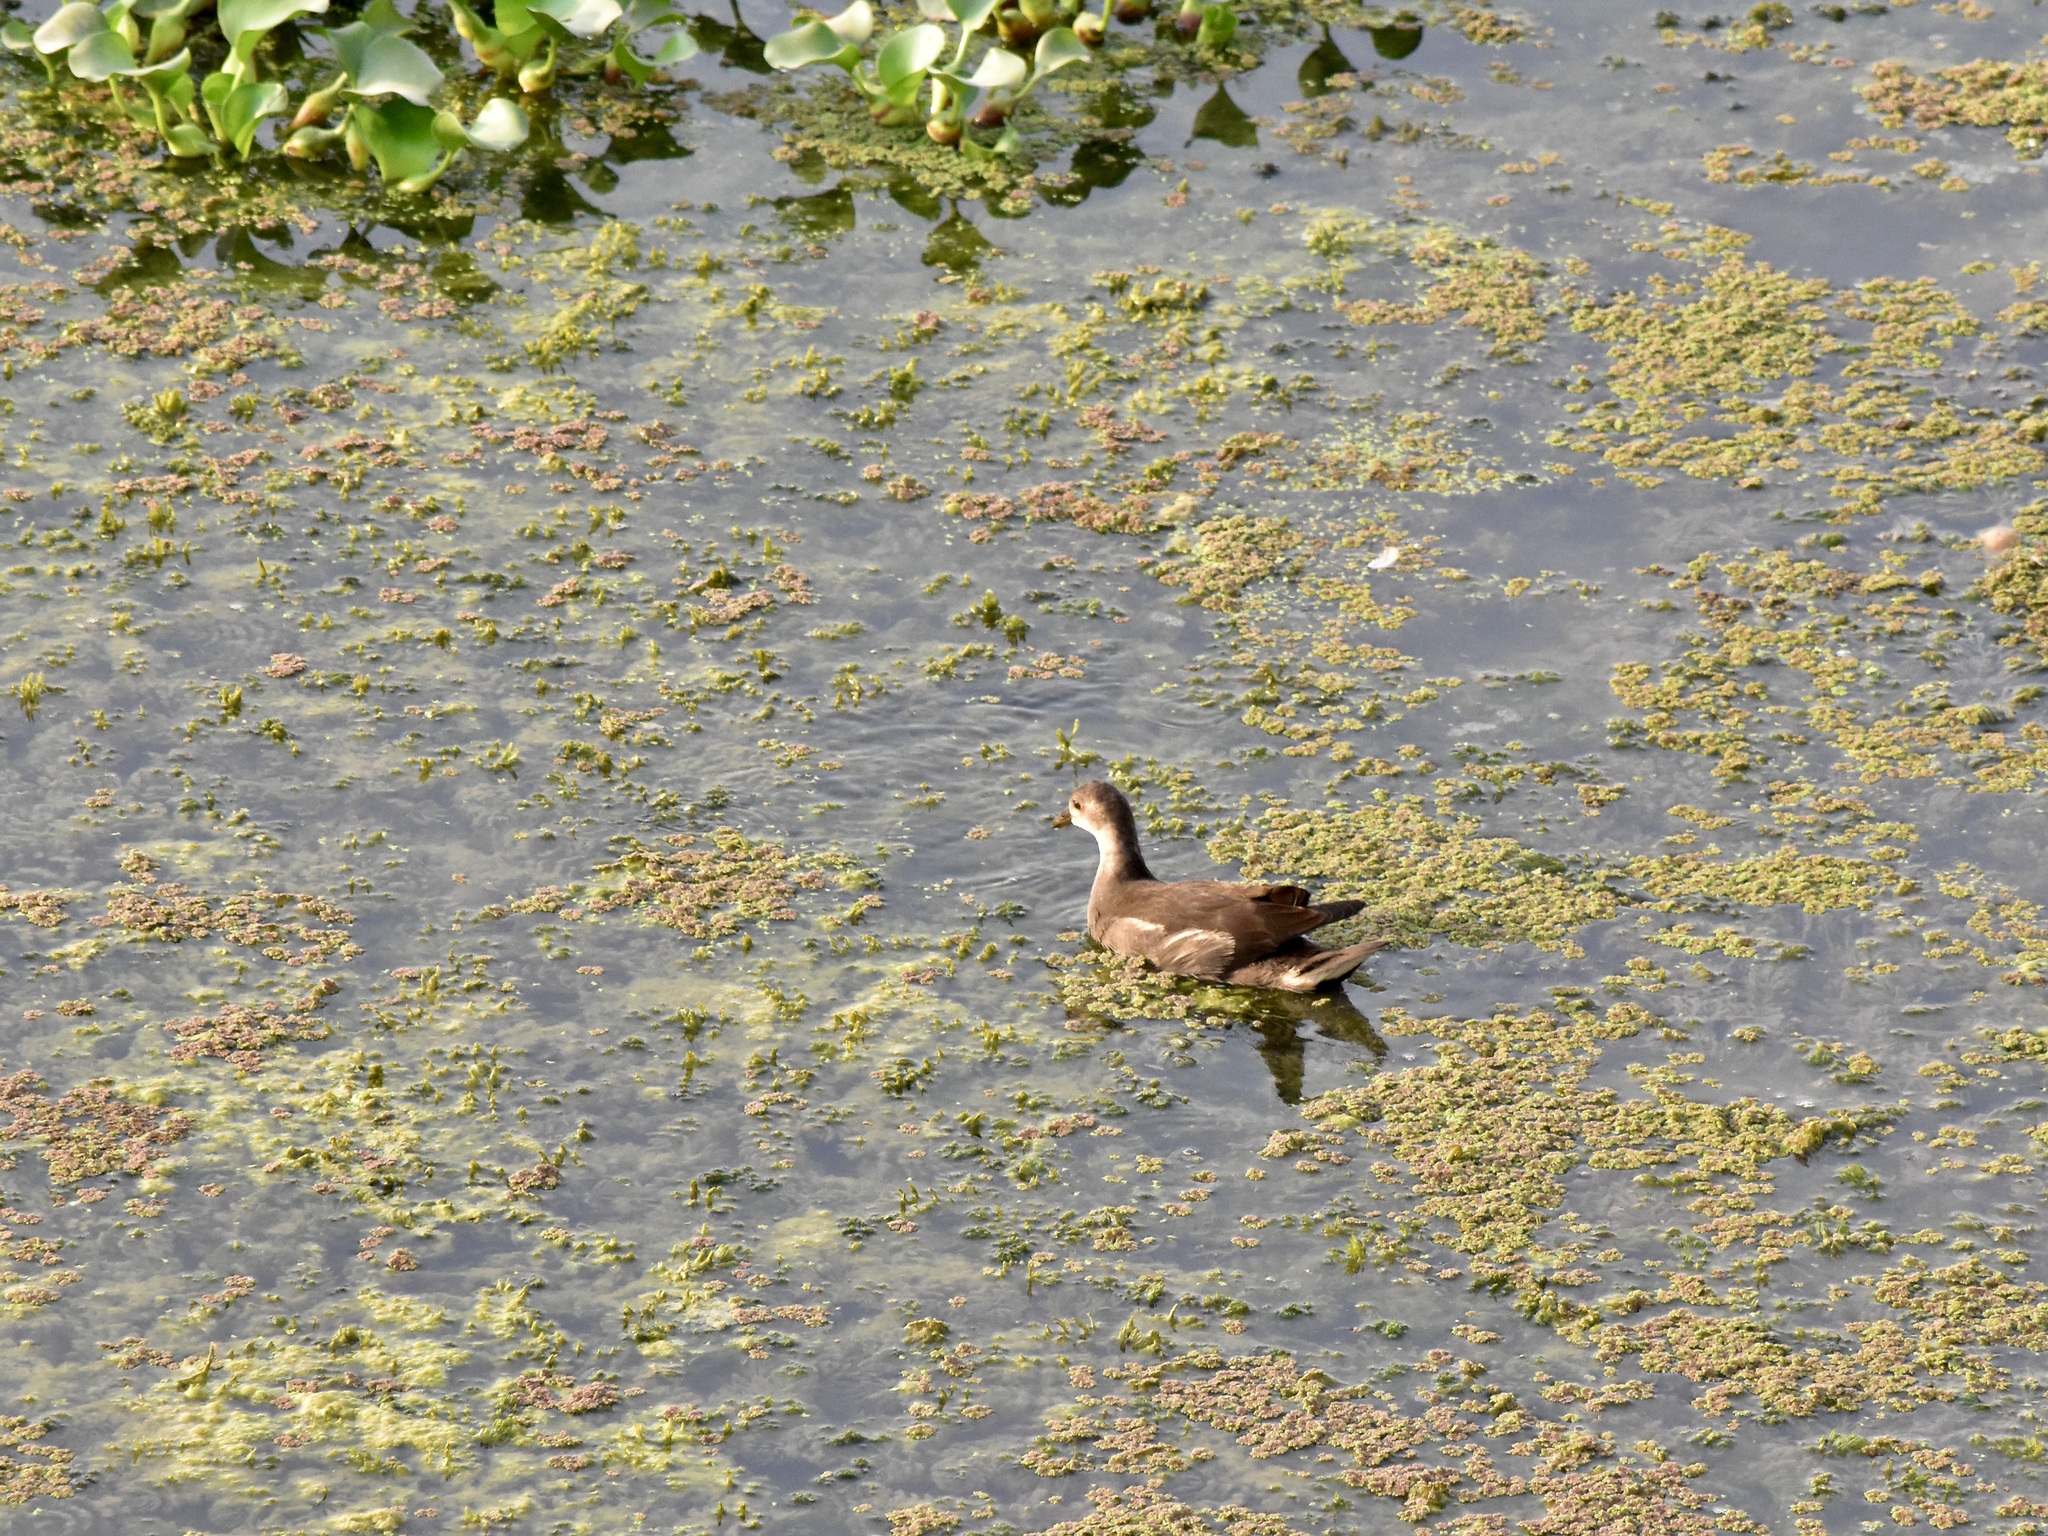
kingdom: Animalia
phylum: Chordata
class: Aves
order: Gruiformes
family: Rallidae
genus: Gallinula
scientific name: Gallinula chloropus
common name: Common moorhen
